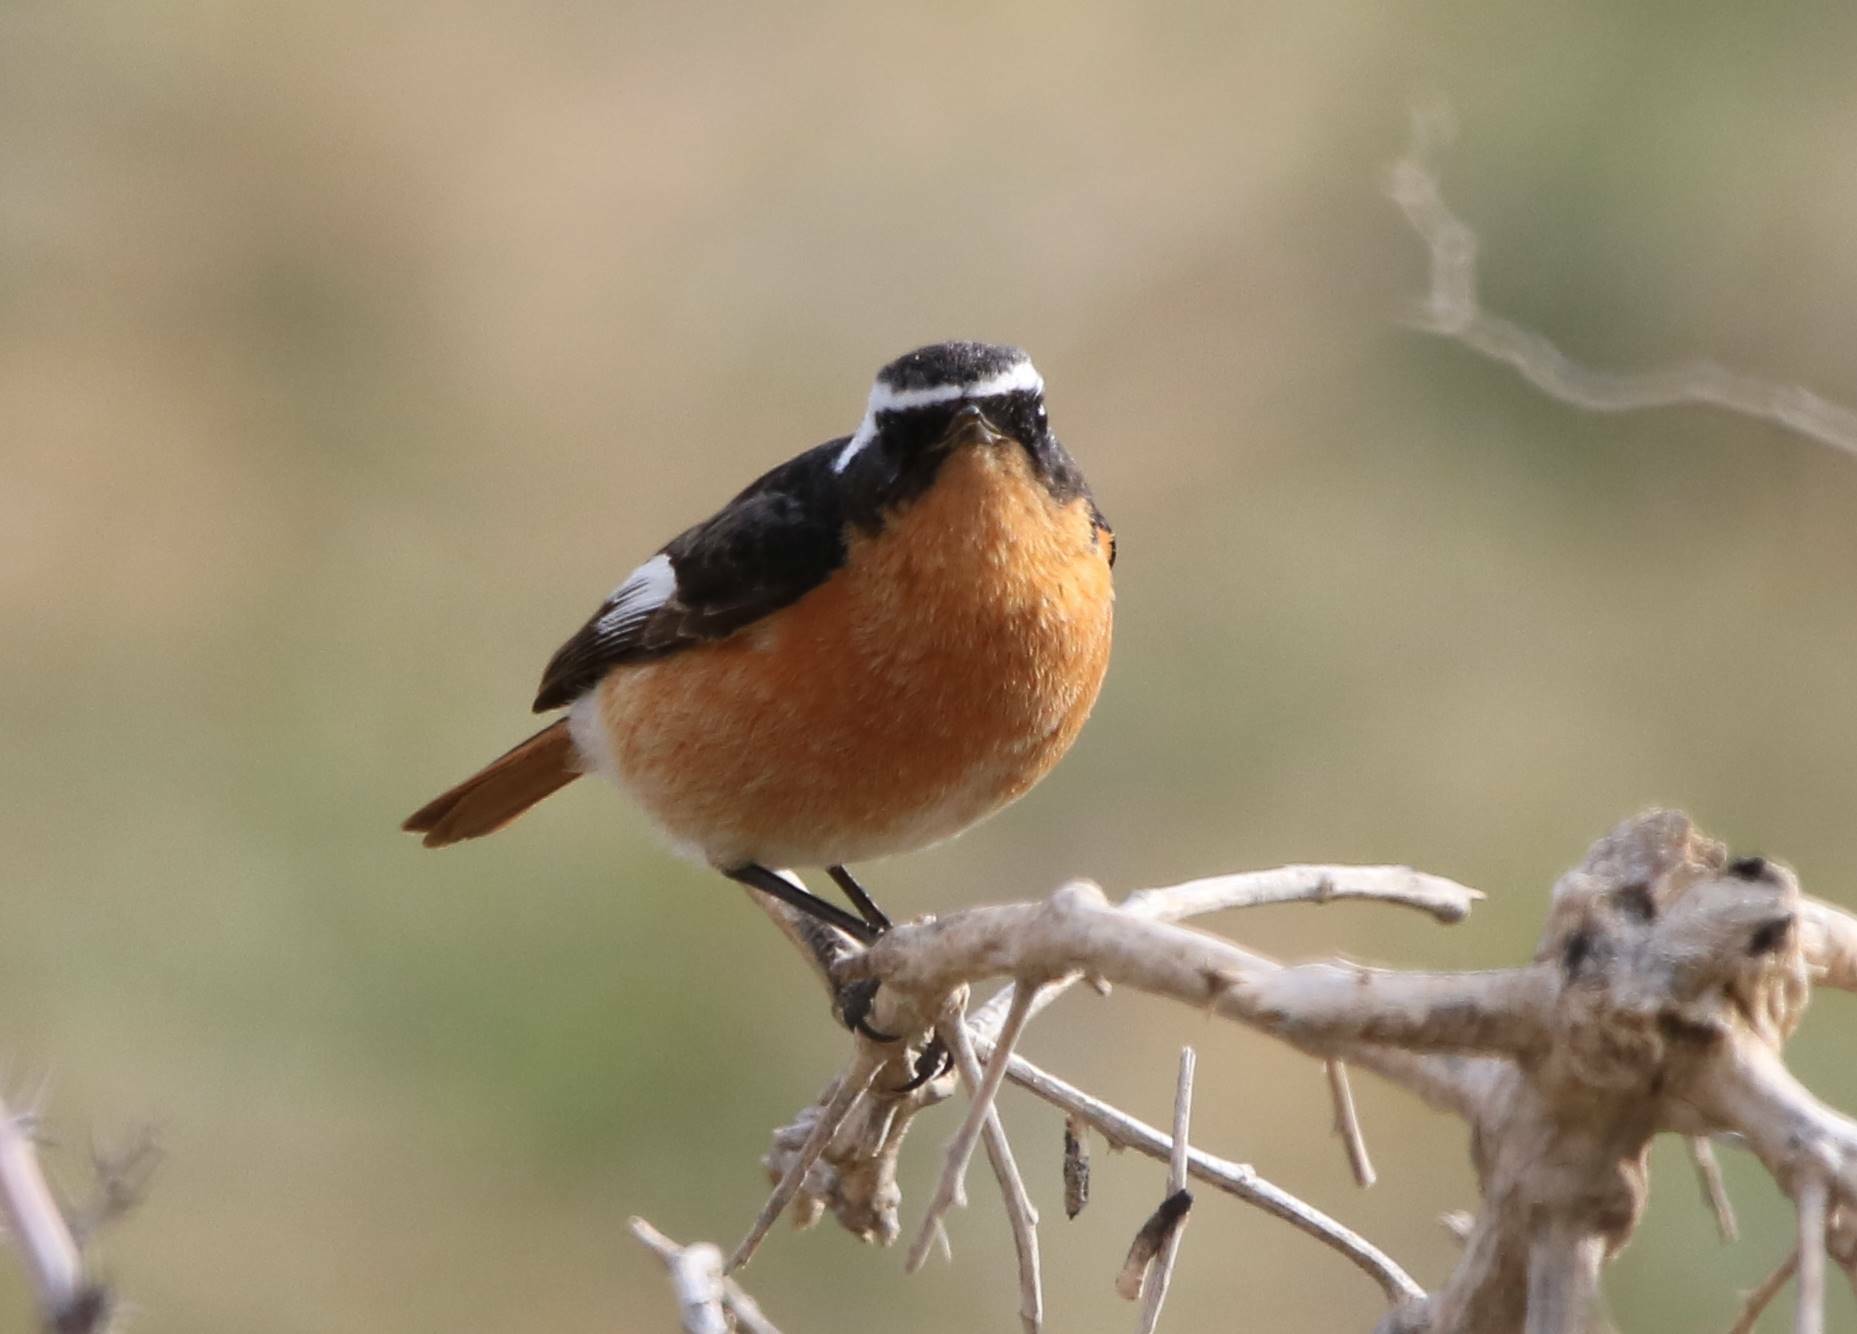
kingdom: Animalia
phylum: Chordata
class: Aves
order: Passeriformes
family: Muscicapidae
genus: Phoenicurus
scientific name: Phoenicurus moussieri
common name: Moussier's redstart
